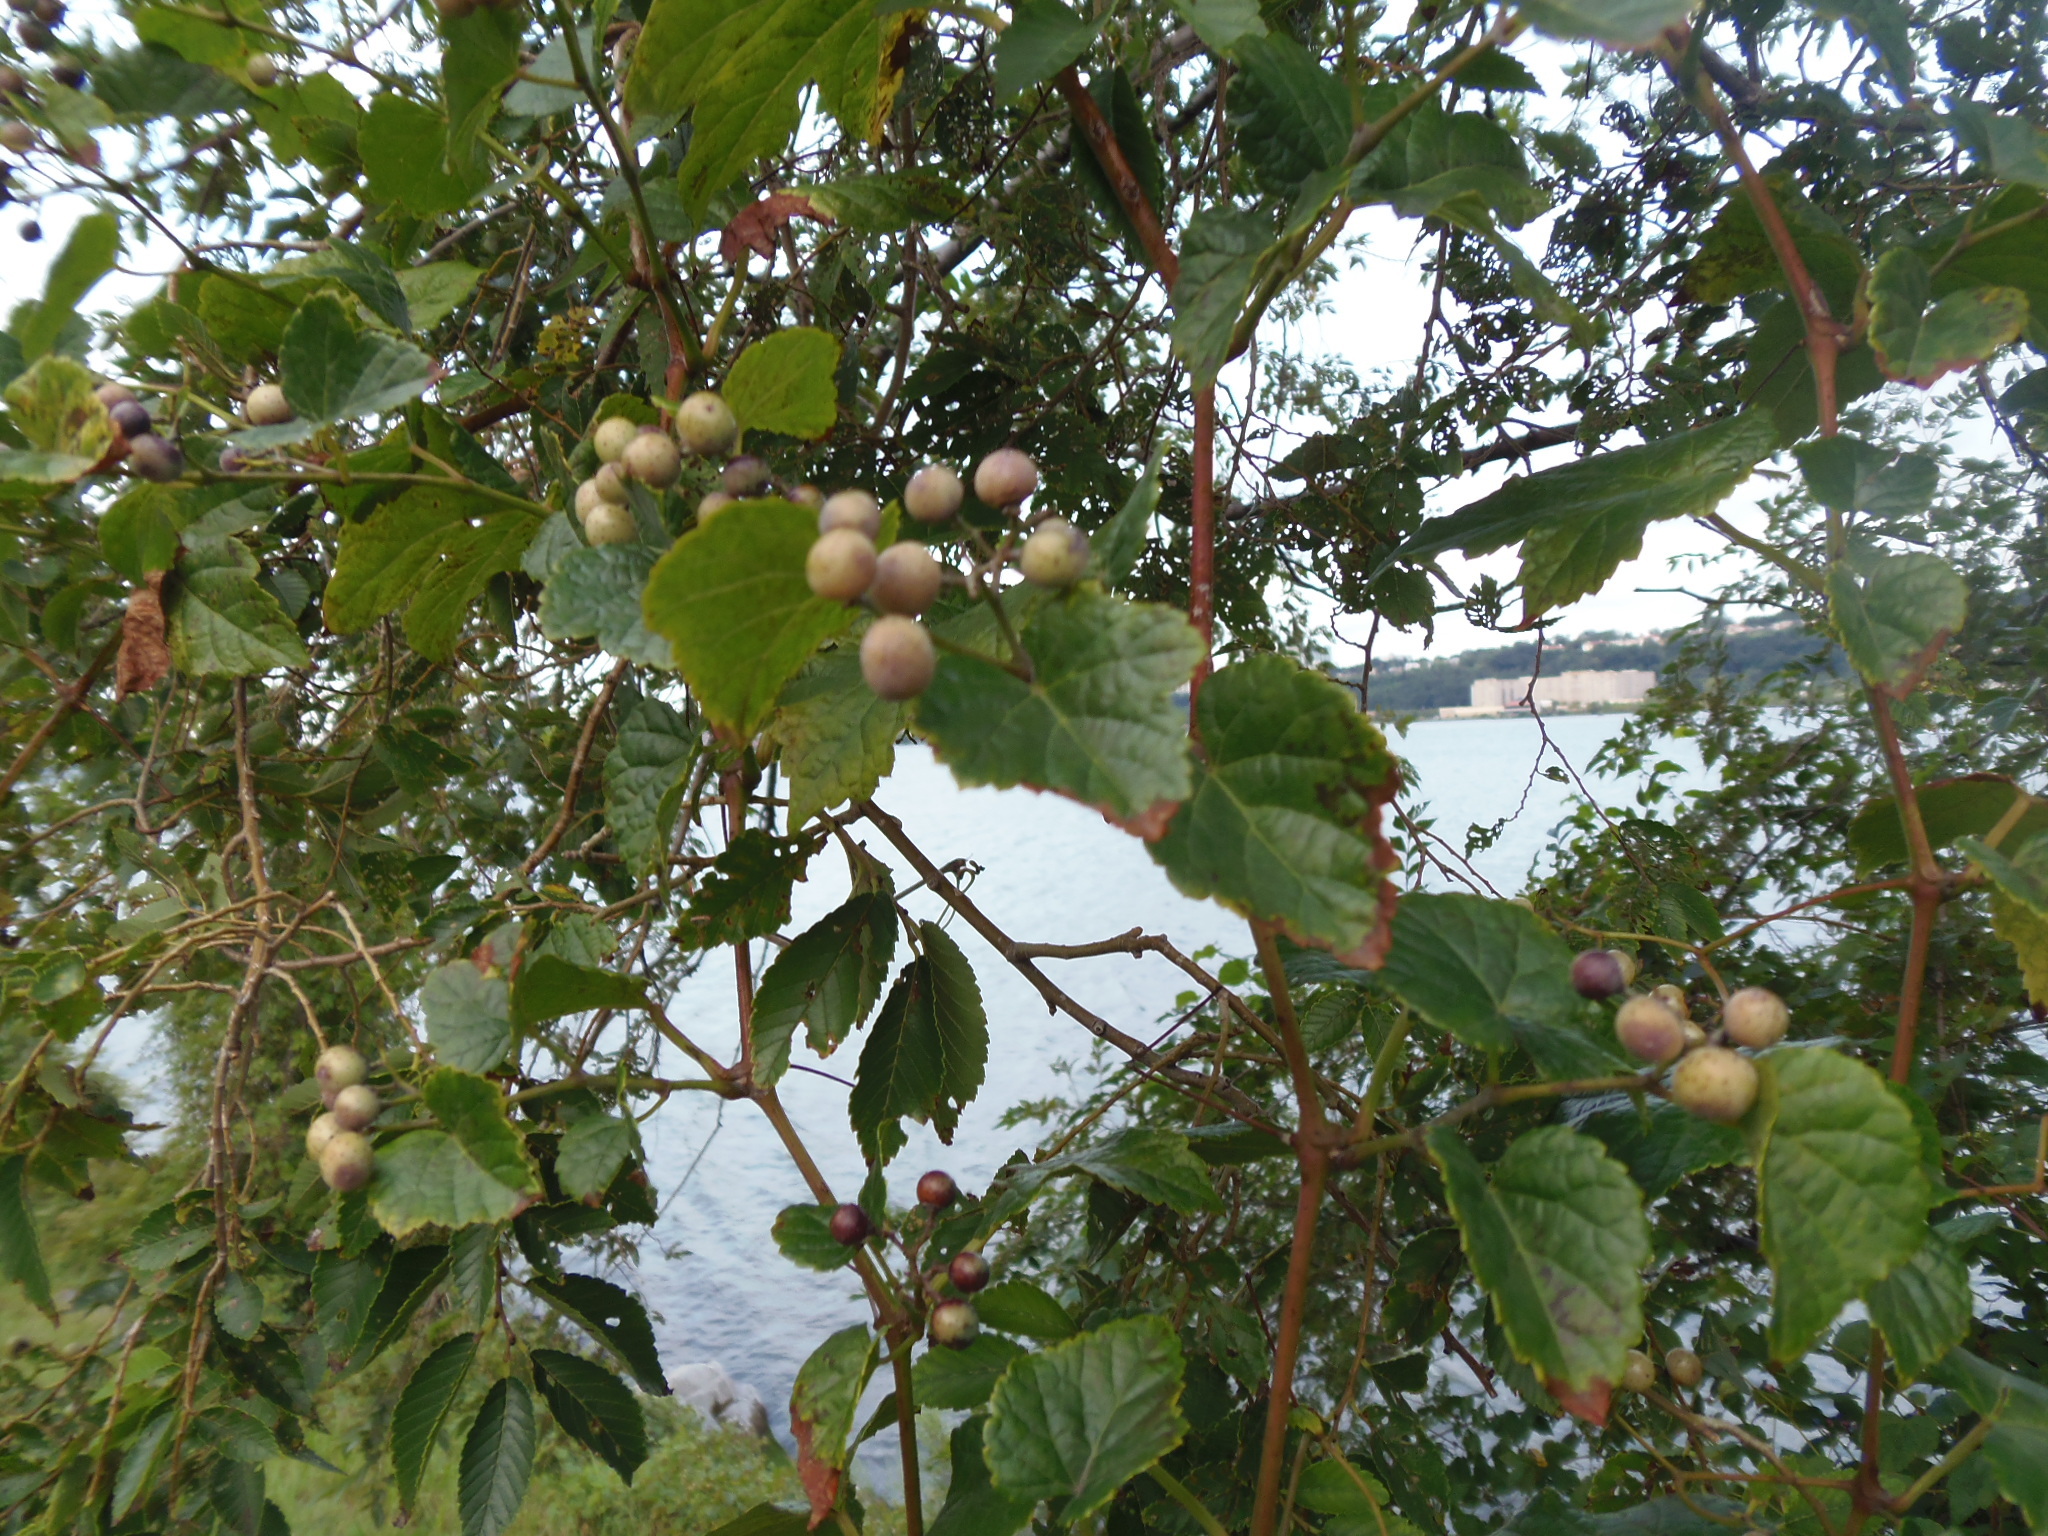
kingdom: Plantae
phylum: Tracheophyta
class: Magnoliopsida
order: Vitales
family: Vitaceae
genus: Ampelopsis
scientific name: Ampelopsis glandulosa
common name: Amur peppervine
